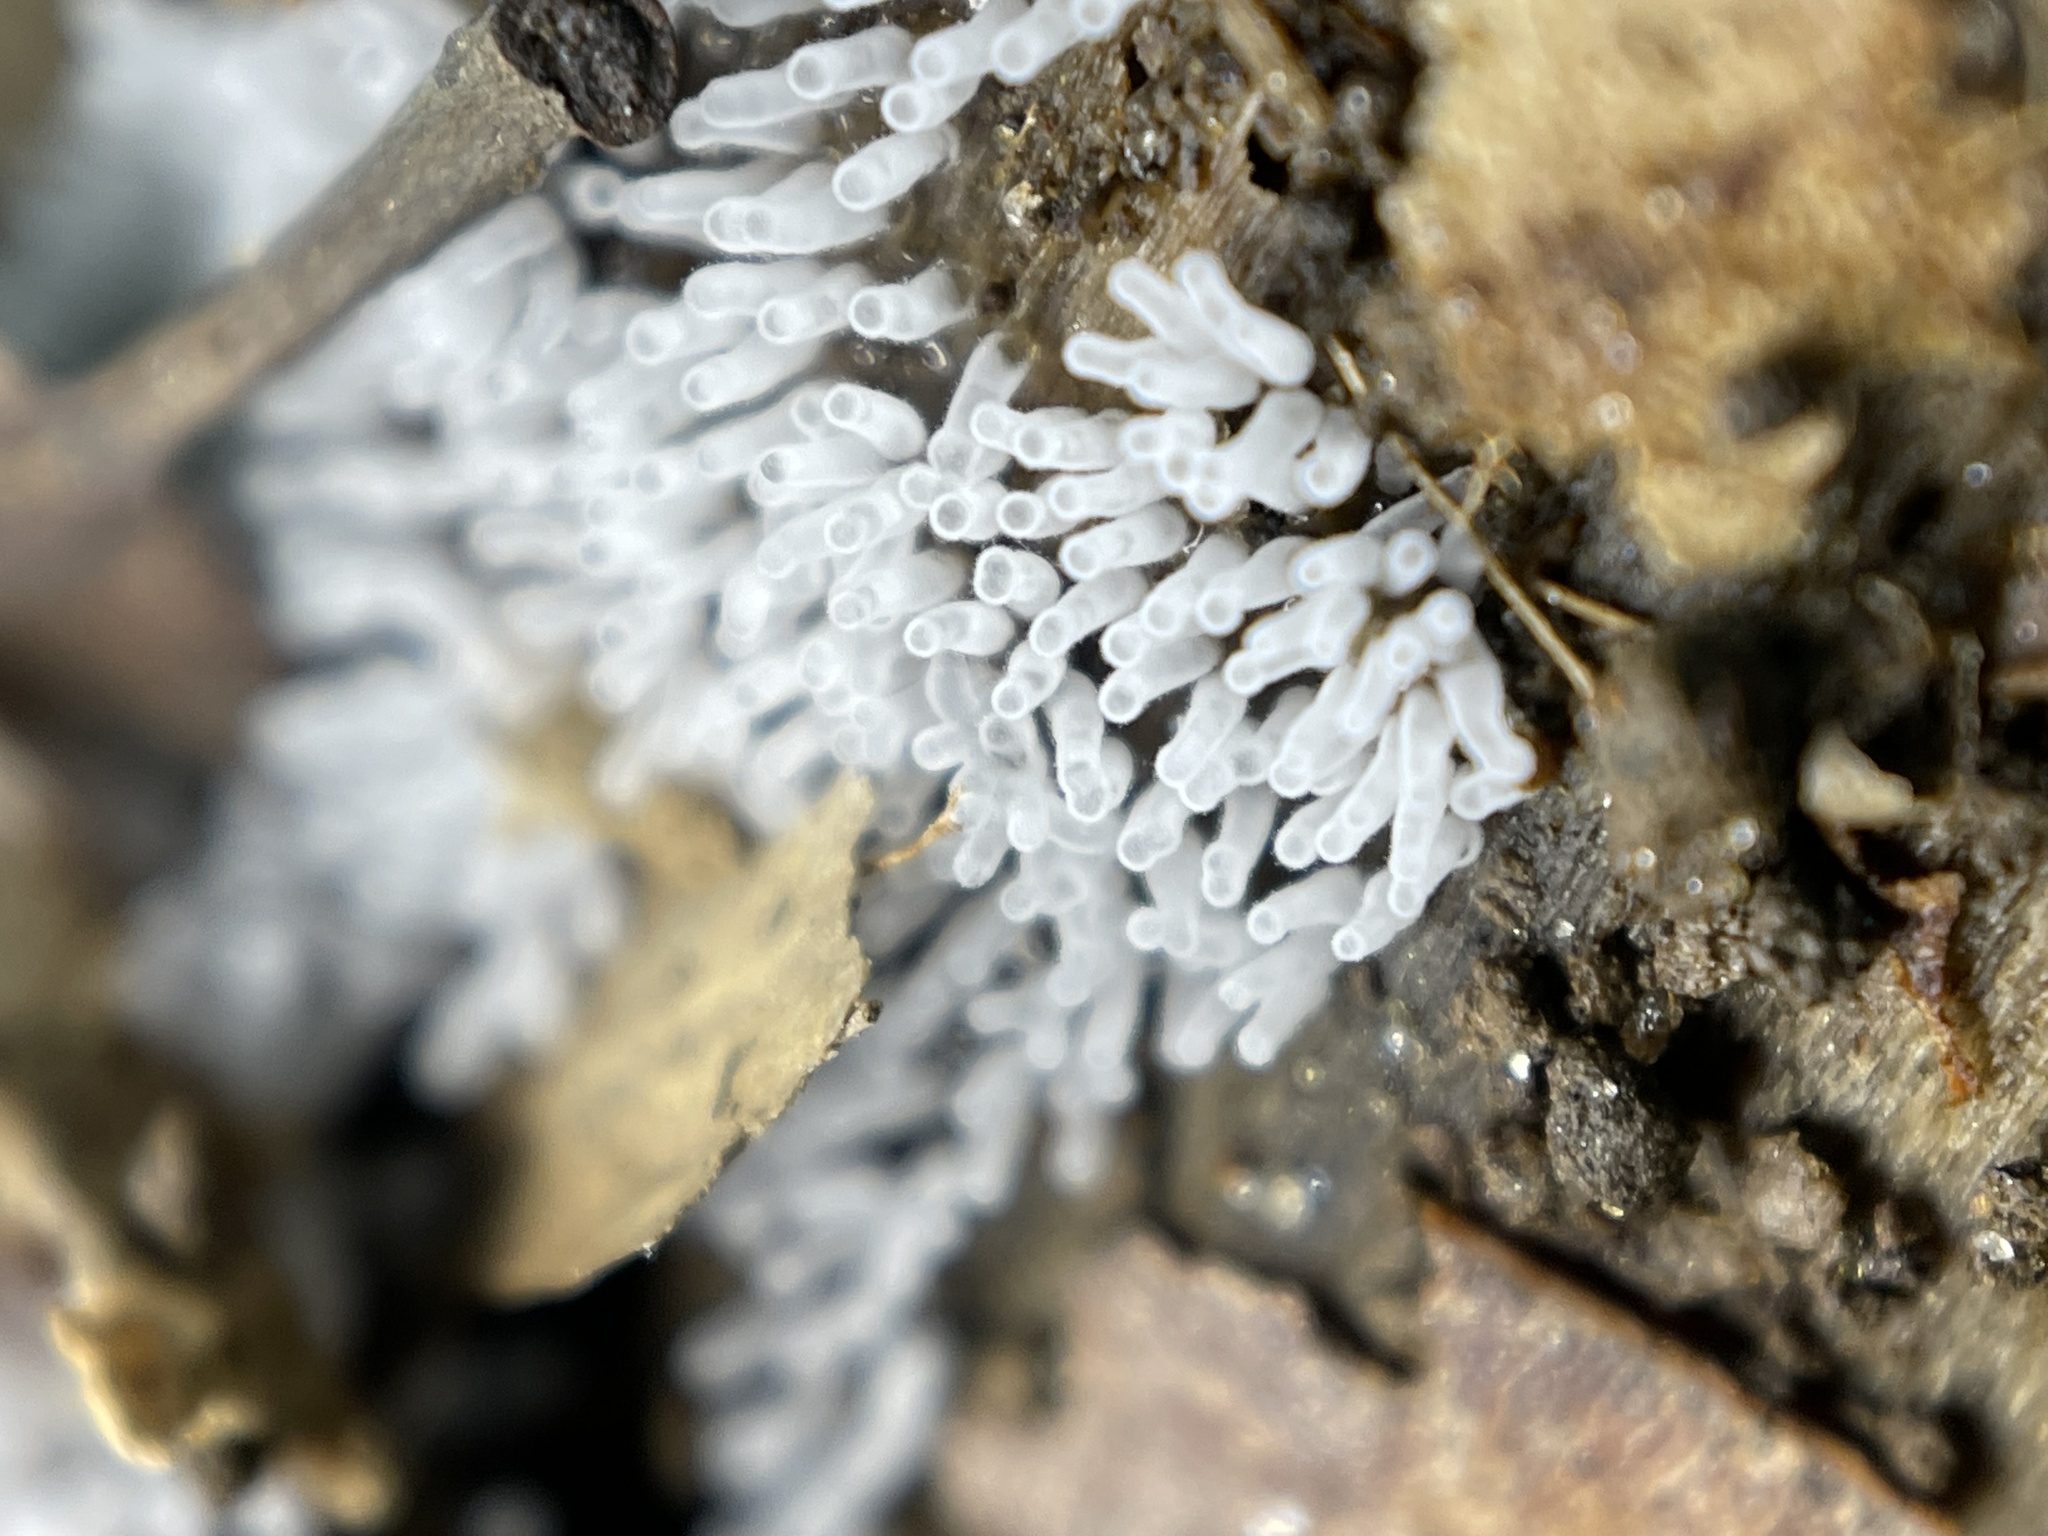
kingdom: Protozoa
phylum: Mycetozoa
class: Protosteliomycetes
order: Ceratiomyxales
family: Ceratiomyxaceae
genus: Ceratiomyxa
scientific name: Ceratiomyxa fruticulosa
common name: Honeycomb coral slime mold
